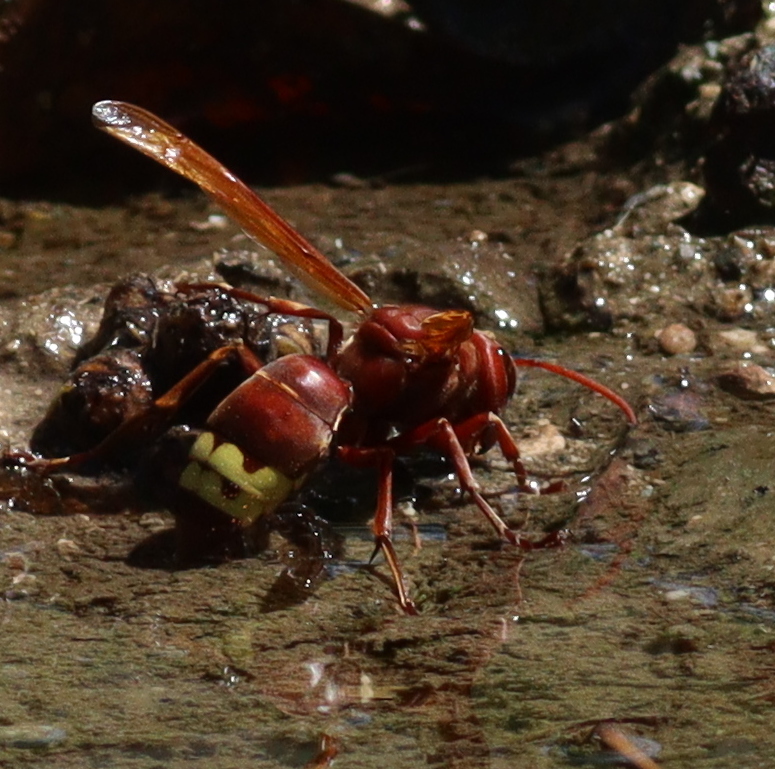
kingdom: Animalia
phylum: Arthropoda
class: Insecta
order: Hymenoptera
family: Vespidae
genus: Vespa
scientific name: Vespa orientalis
